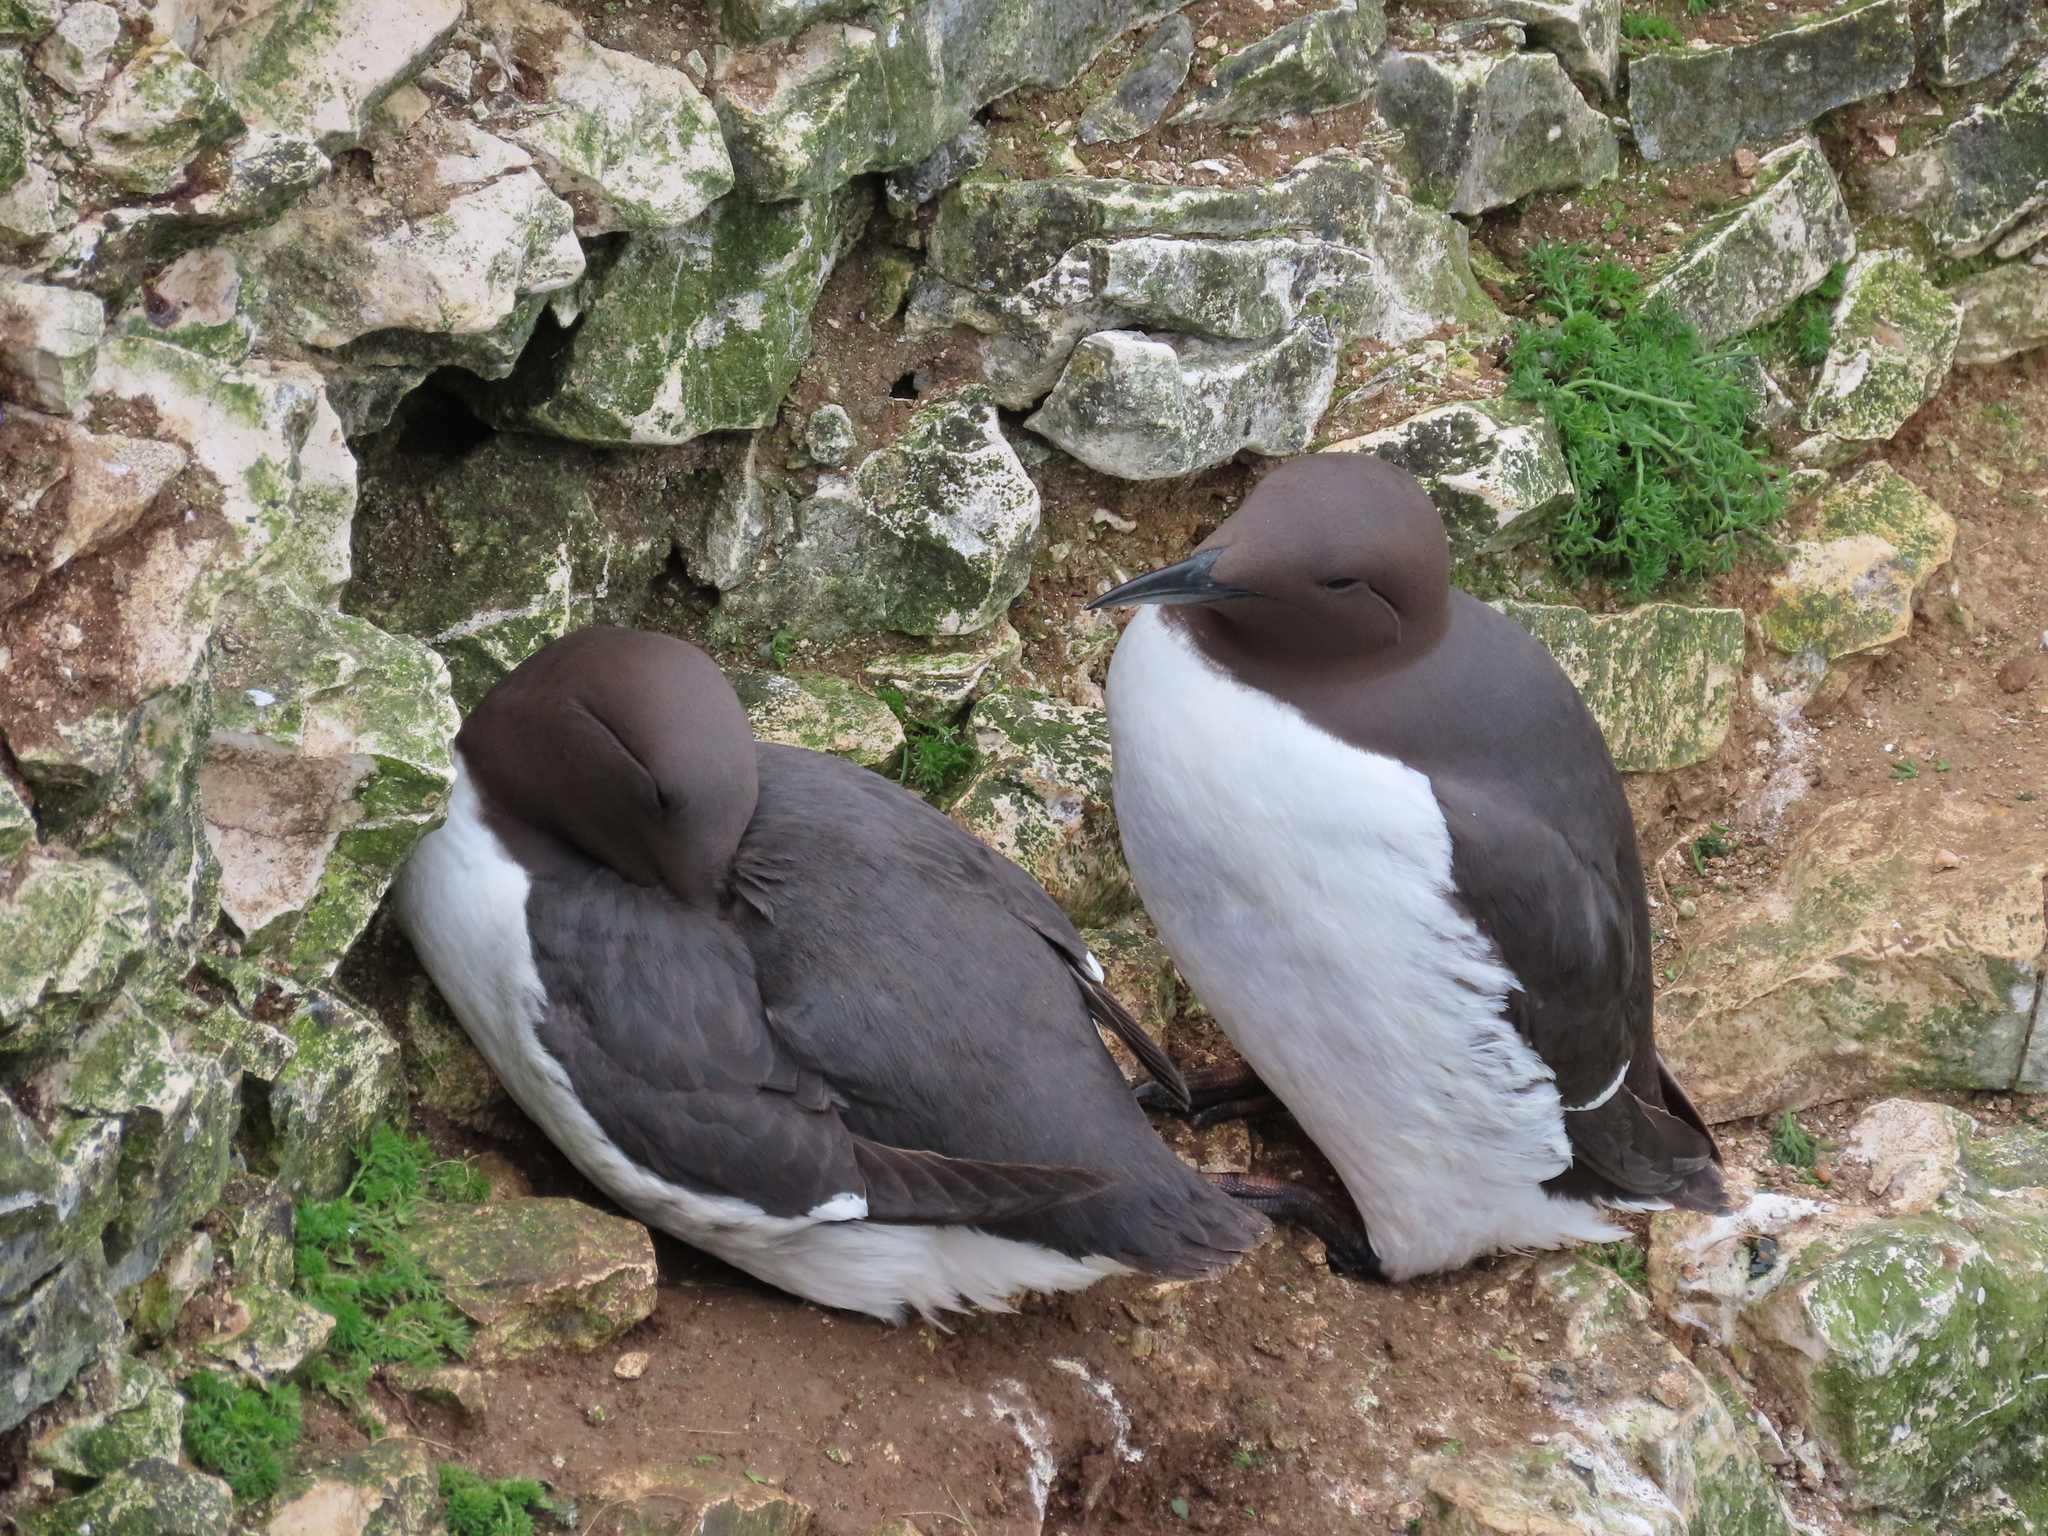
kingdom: Animalia
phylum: Chordata
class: Aves
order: Charadriiformes
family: Alcidae
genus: Uria
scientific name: Uria aalge
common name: Common murre
